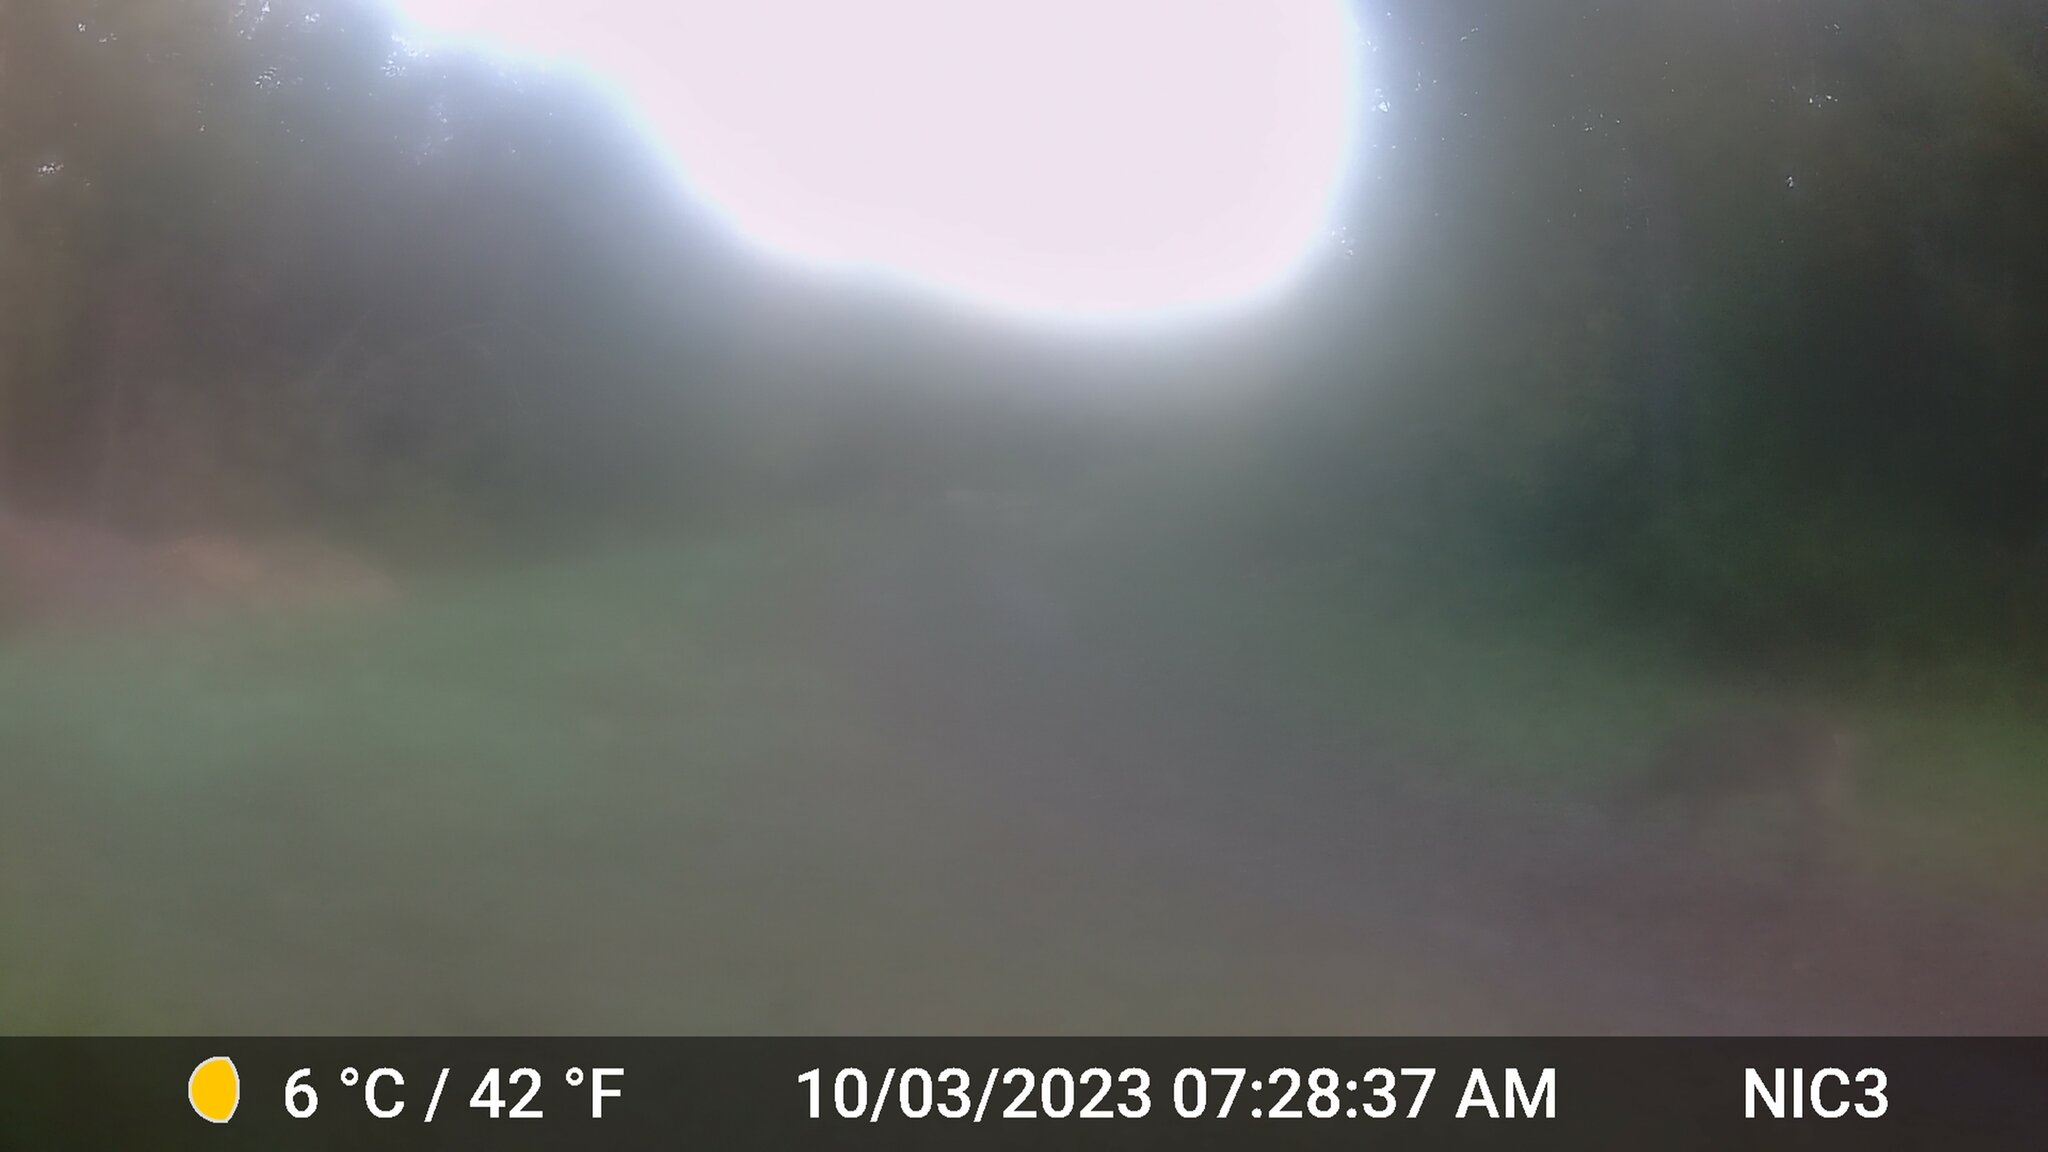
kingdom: Animalia
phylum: Chordata
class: Mammalia
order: Artiodactyla
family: Cervidae
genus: Odocoileus
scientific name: Odocoileus virginianus
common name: White-tailed deer
